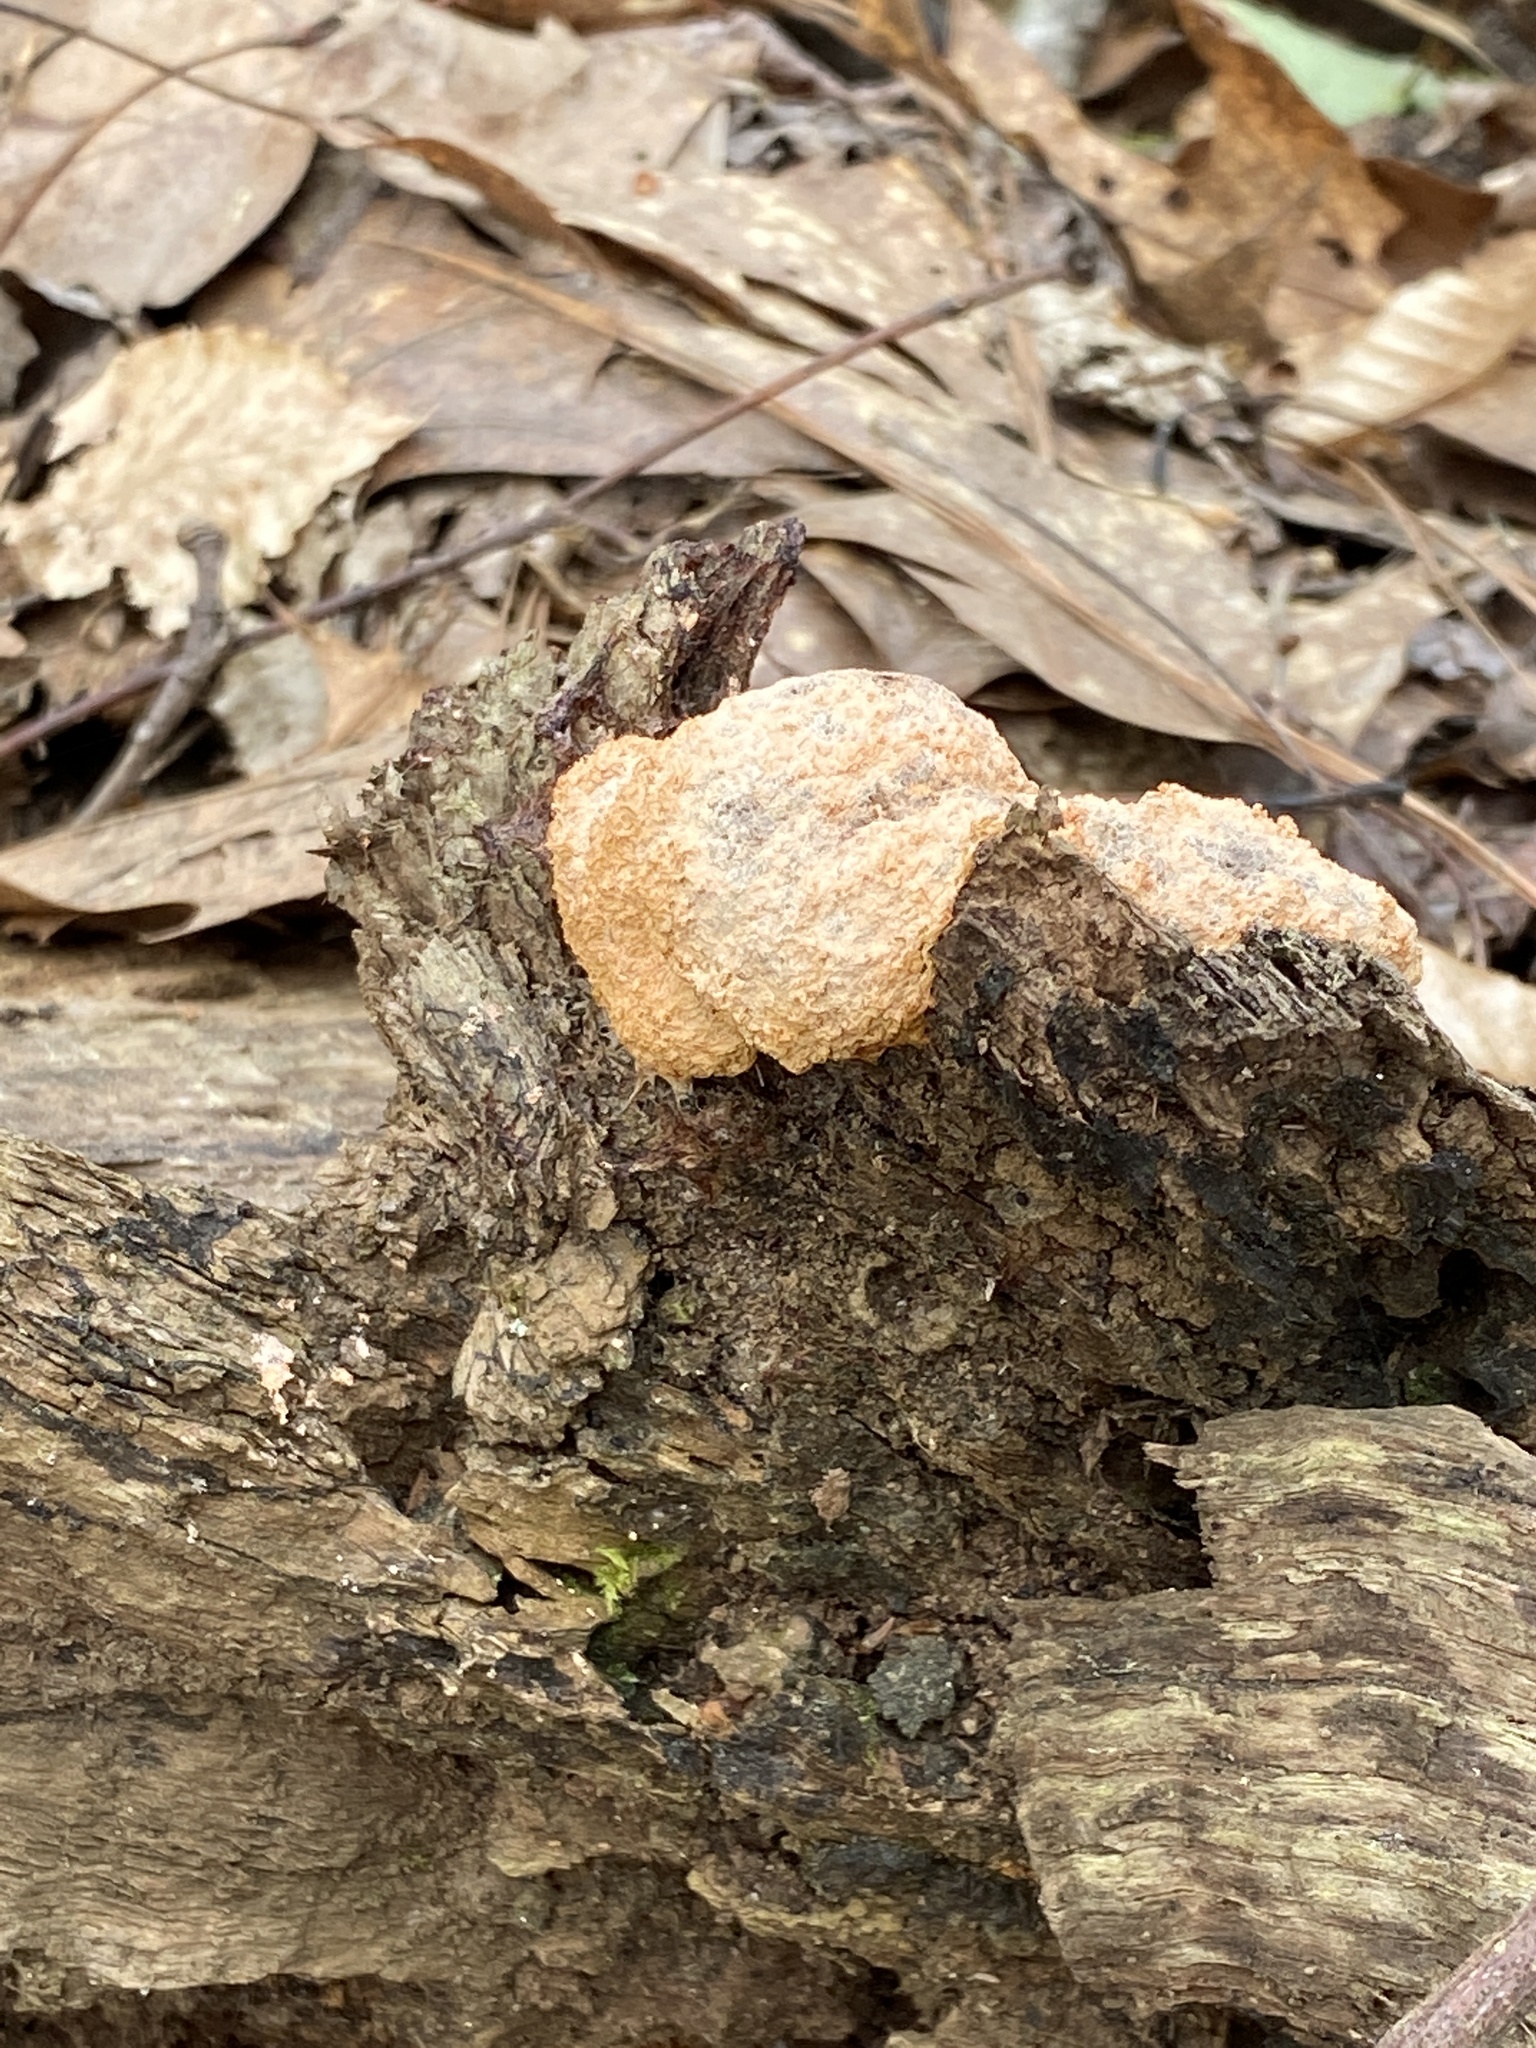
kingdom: Protozoa
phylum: Mycetozoa
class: Myxomycetes
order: Physarales
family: Physaraceae
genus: Fuligo
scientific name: Fuligo septica
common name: Dog vomit slime mold
